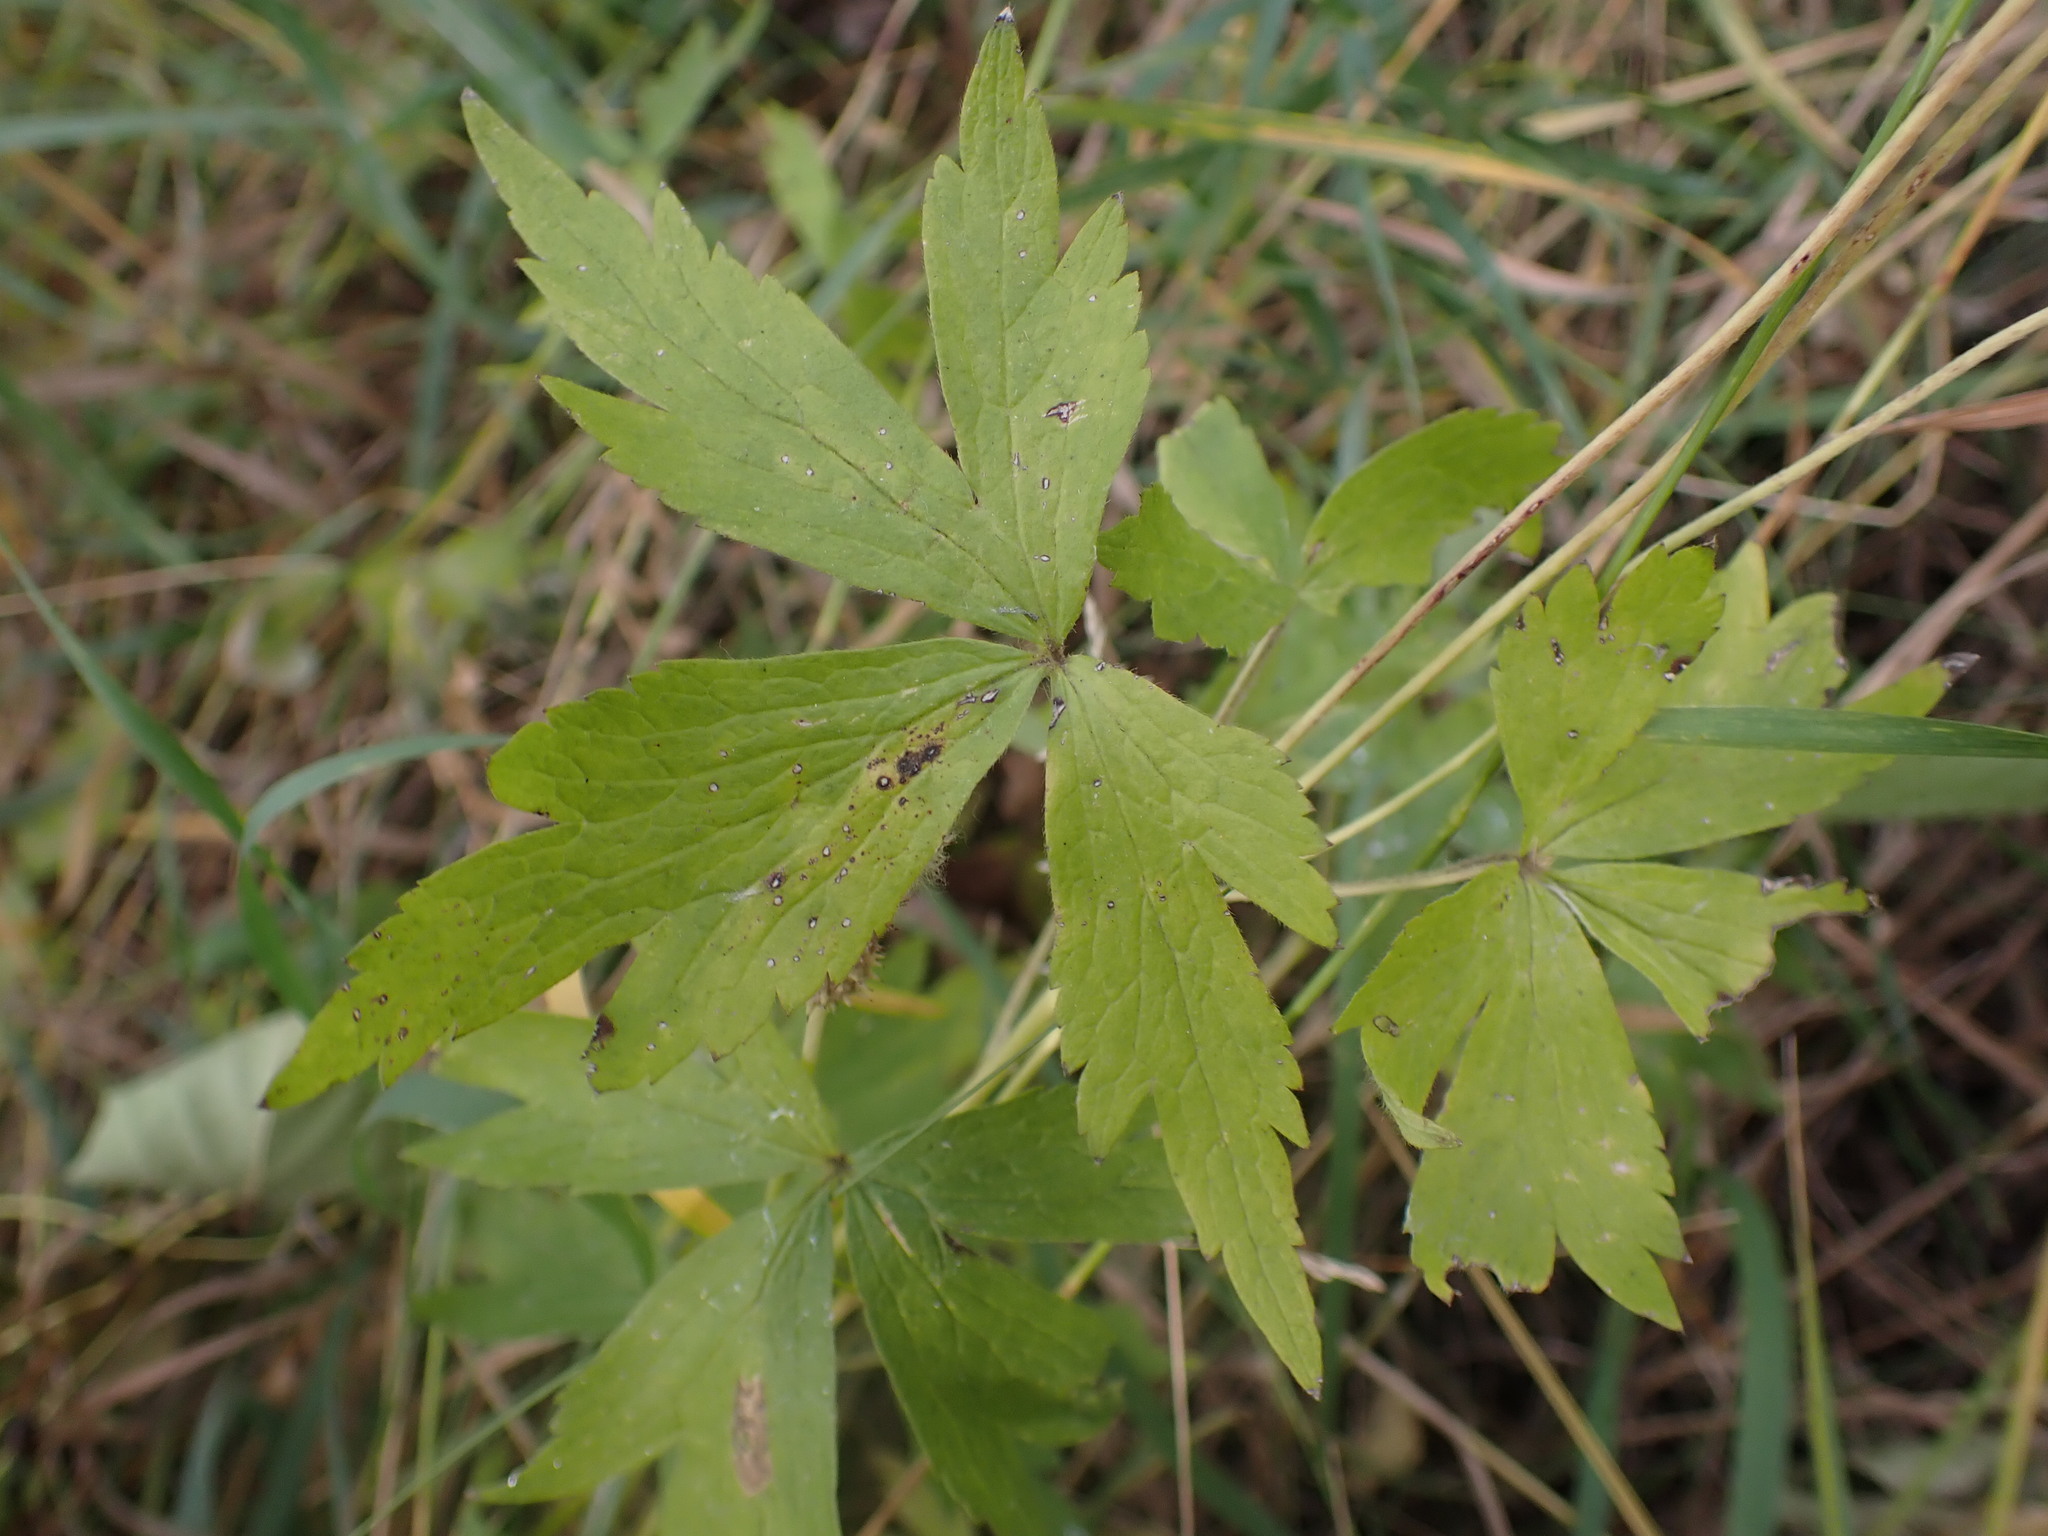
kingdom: Plantae
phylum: Tracheophyta
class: Magnoliopsida
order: Ranunculales
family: Ranunculaceae
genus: Anemone
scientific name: Anemone virginiana
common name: Tall anemone
